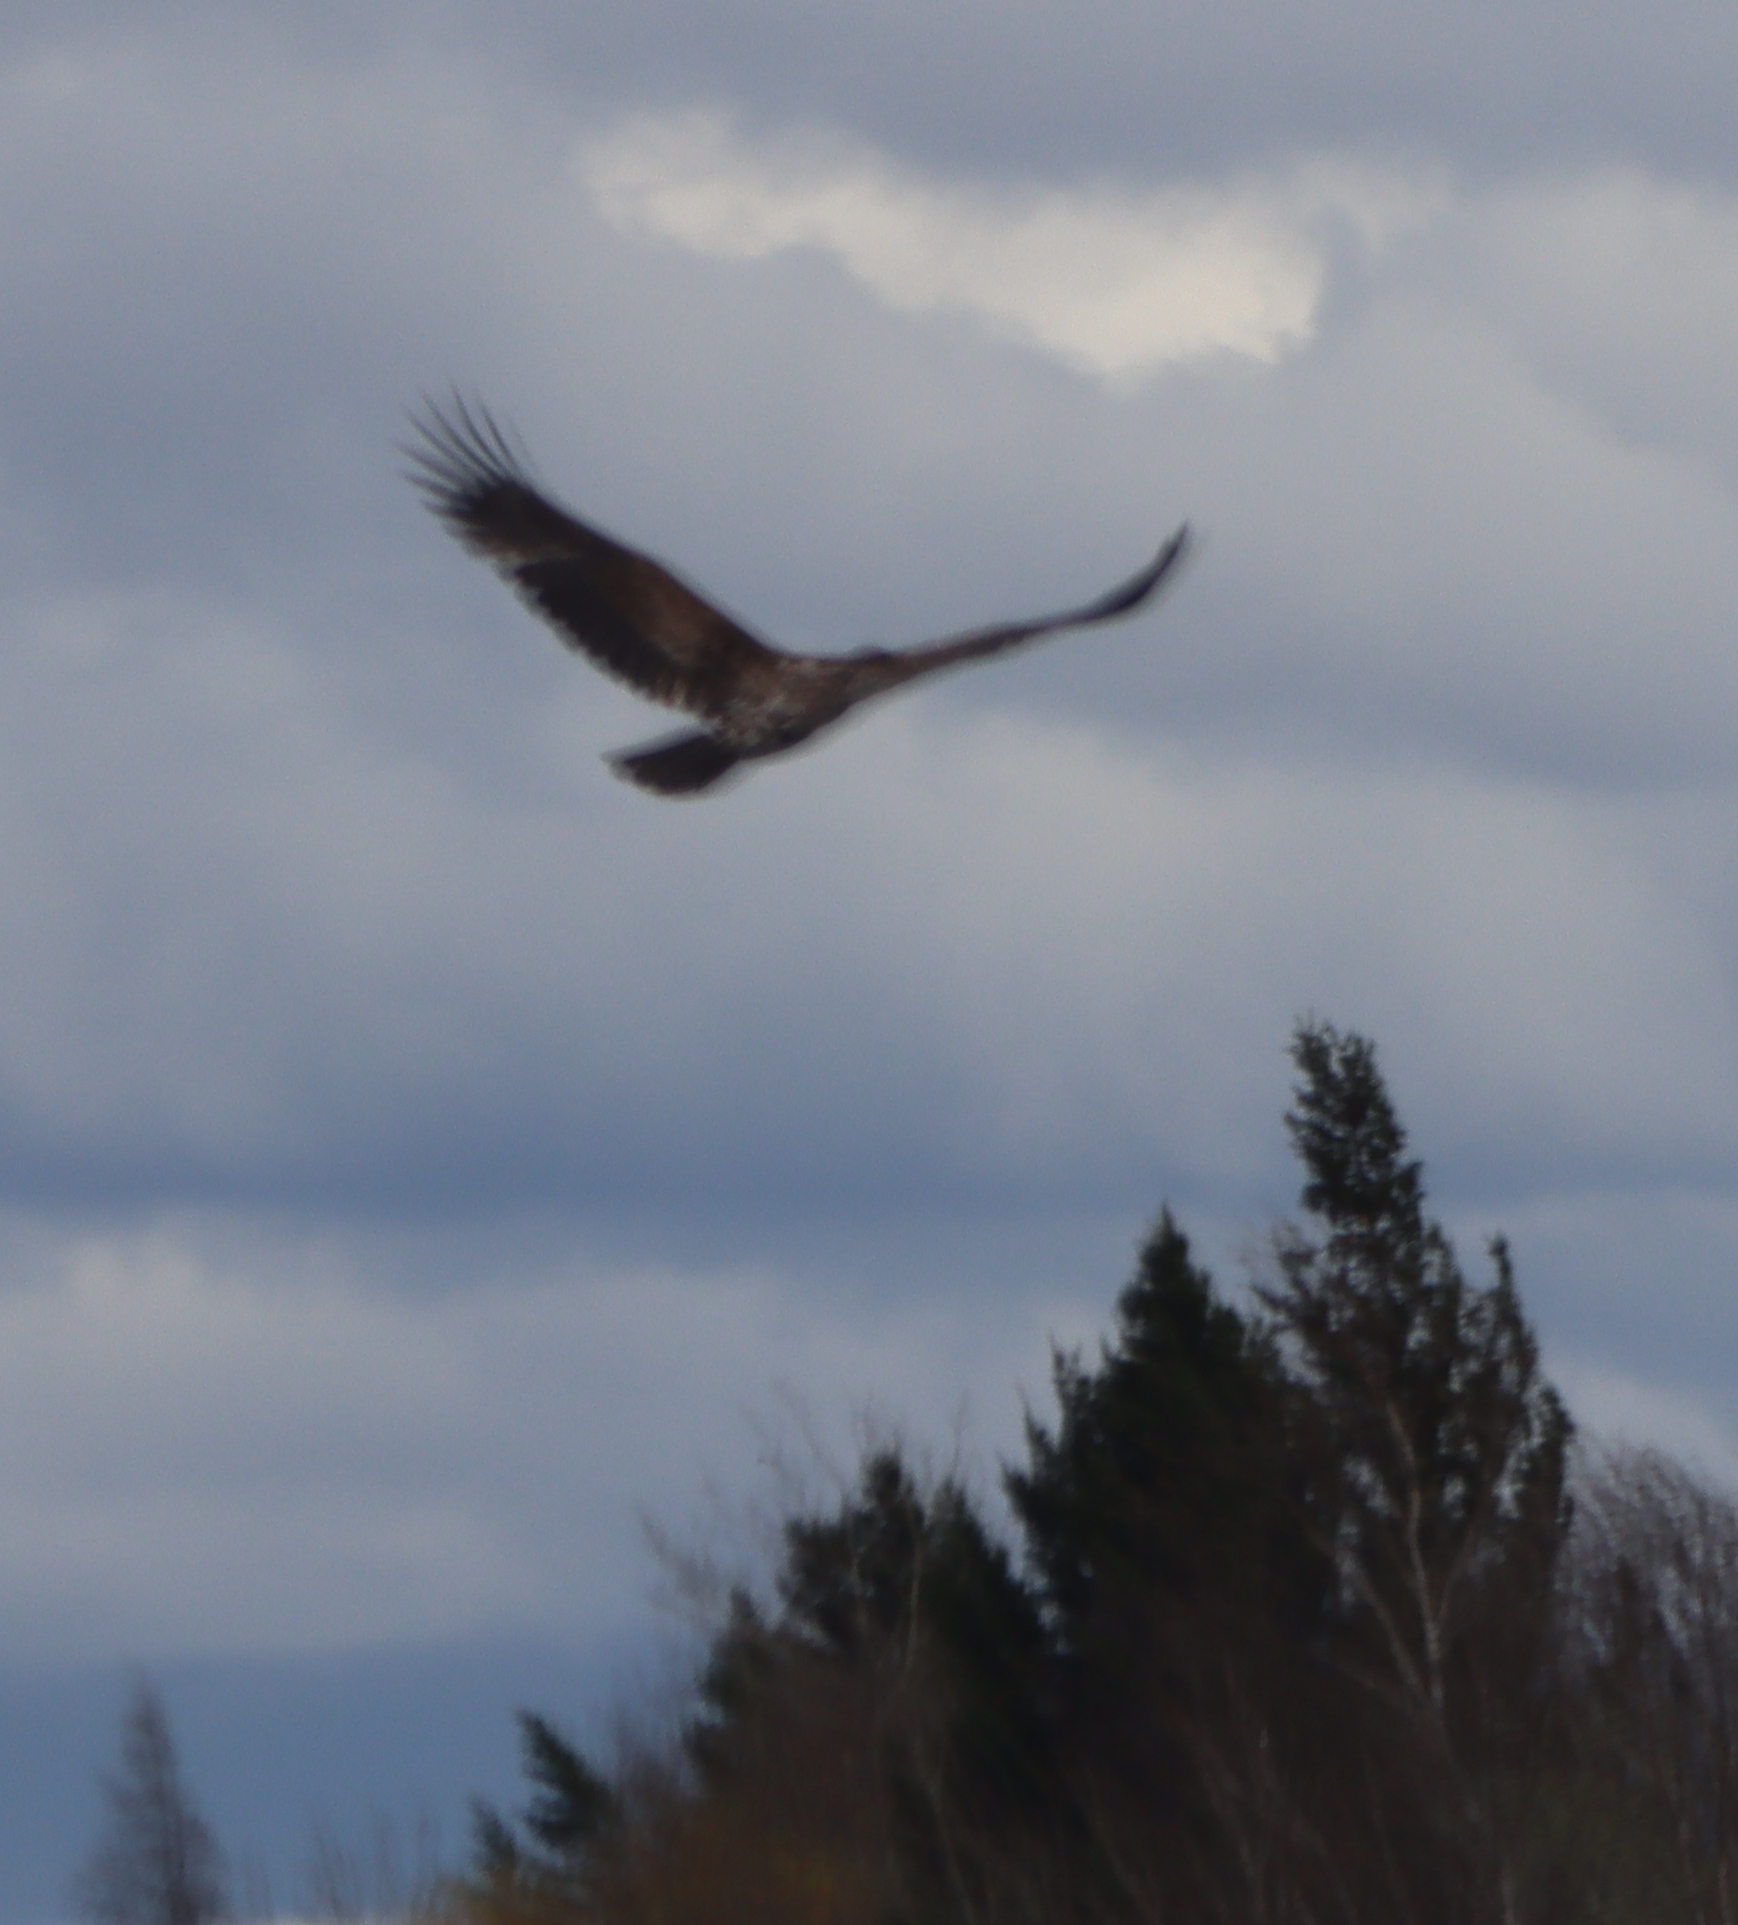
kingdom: Animalia
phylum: Chordata
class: Aves
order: Accipitriformes
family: Accipitridae
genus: Haliaeetus
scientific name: Haliaeetus leucocephalus
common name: Bald eagle
